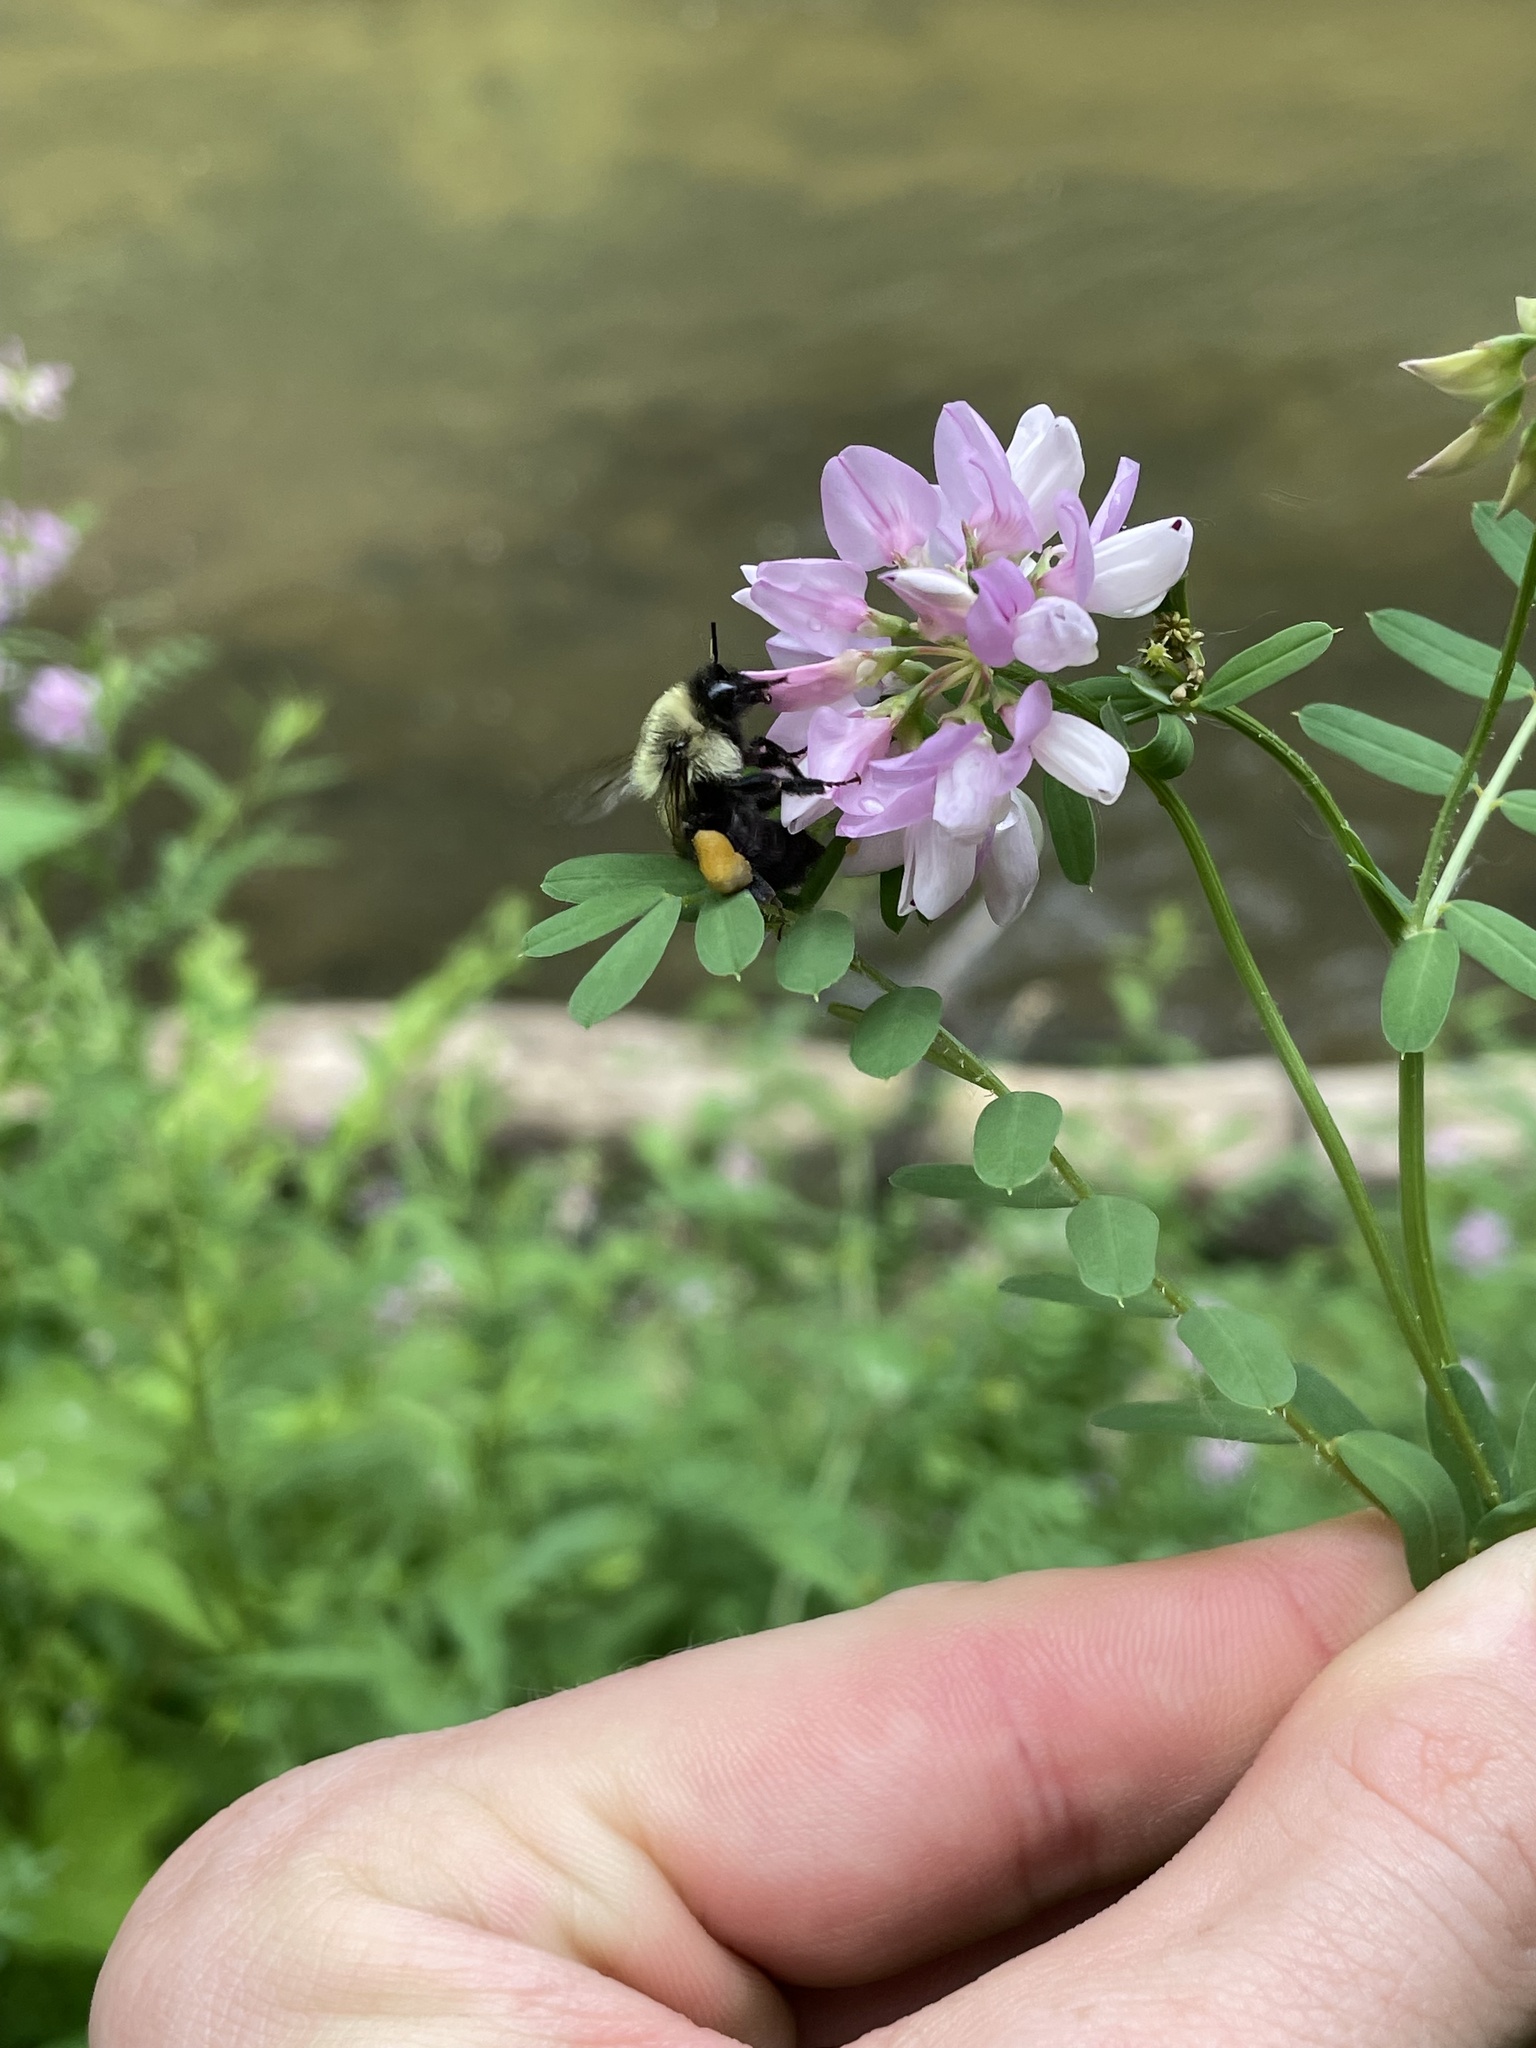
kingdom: Animalia
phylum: Arthropoda
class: Insecta
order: Hymenoptera
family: Apidae
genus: Bombus
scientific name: Bombus impatiens
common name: Common eastern bumble bee
